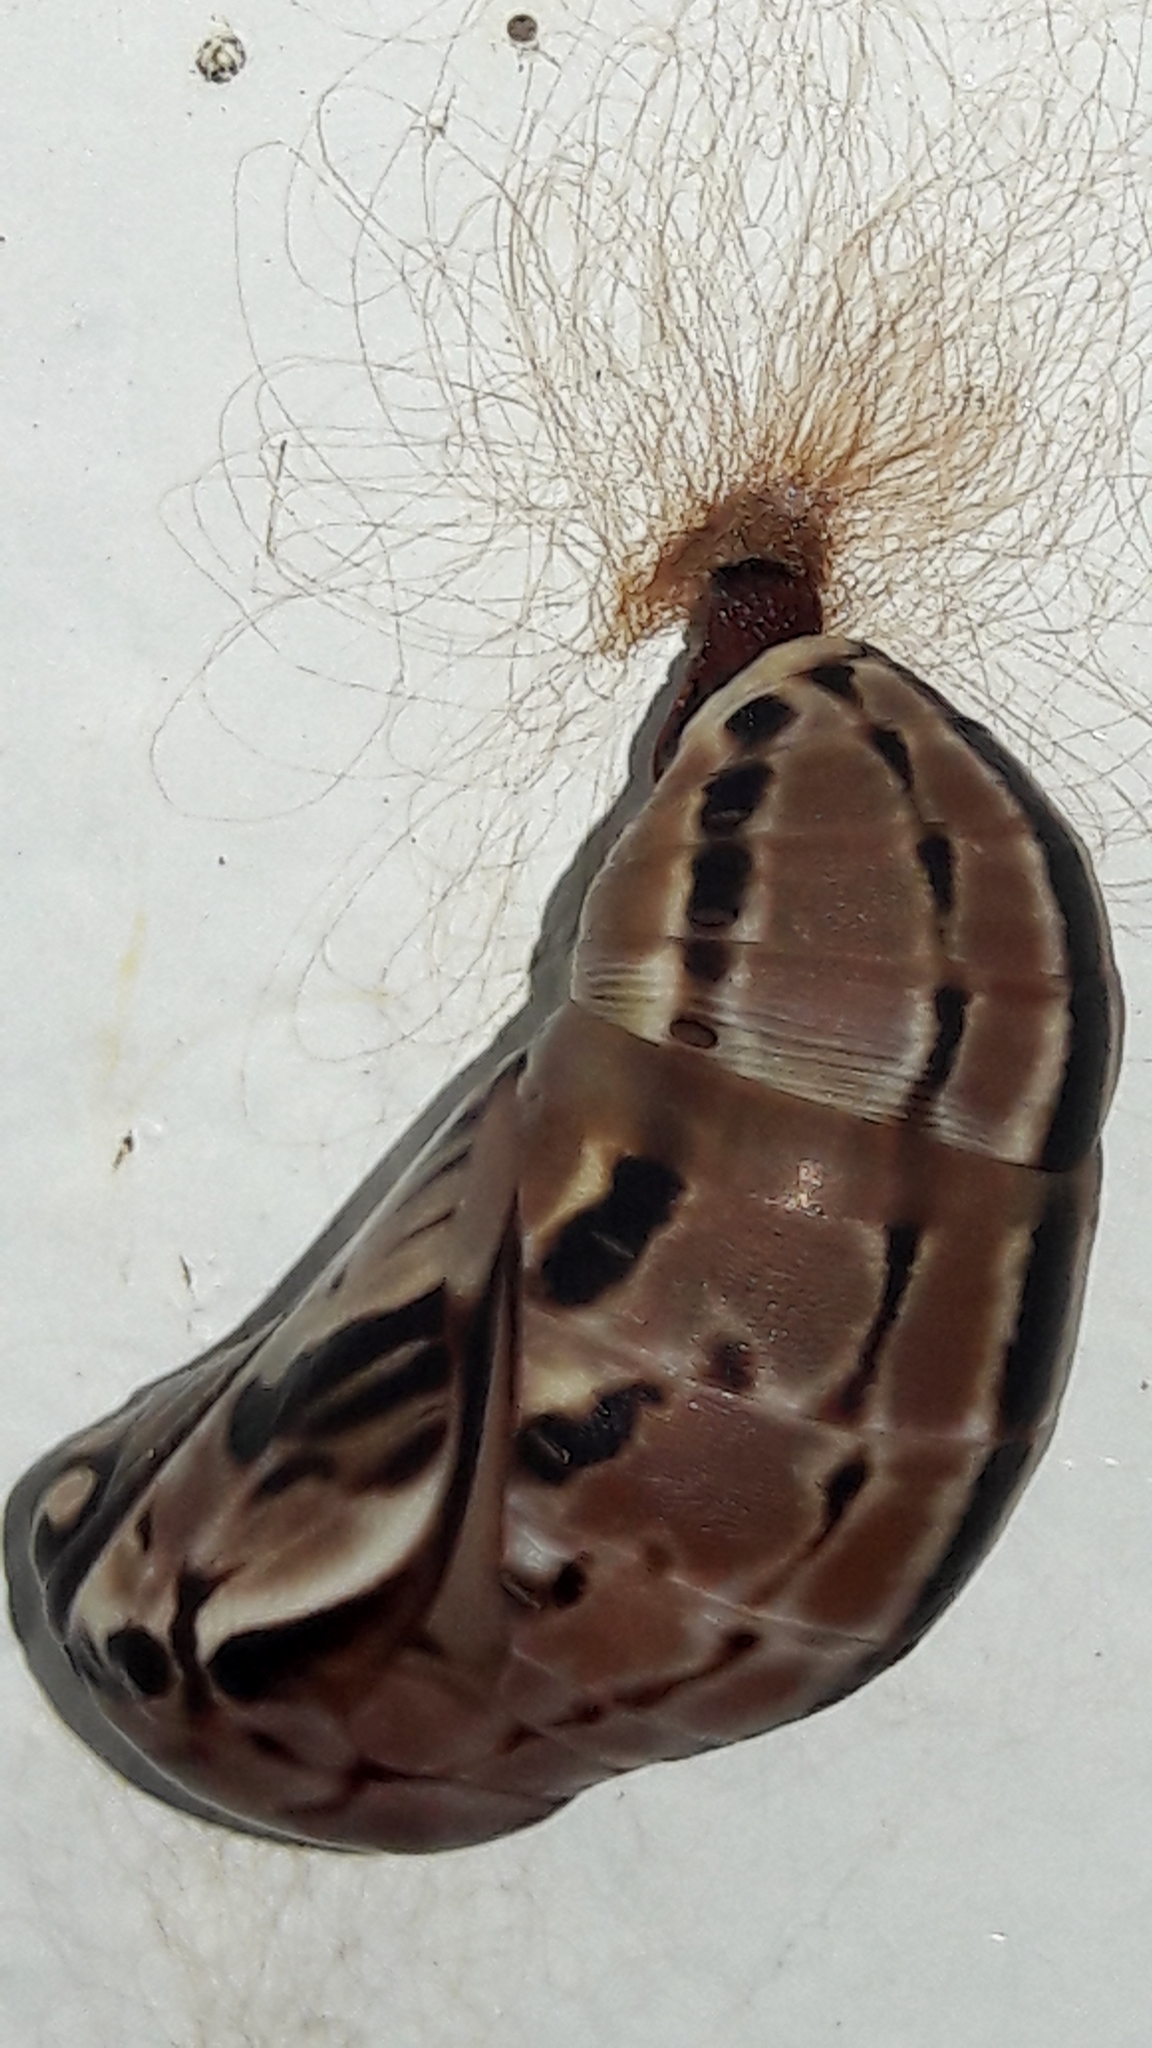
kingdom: Animalia
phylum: Arthropoda
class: Insecta
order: Lepidoptera
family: Nymphalidae
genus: Brassolis
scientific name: Brassolis sophorae
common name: Coconut caterpillar
